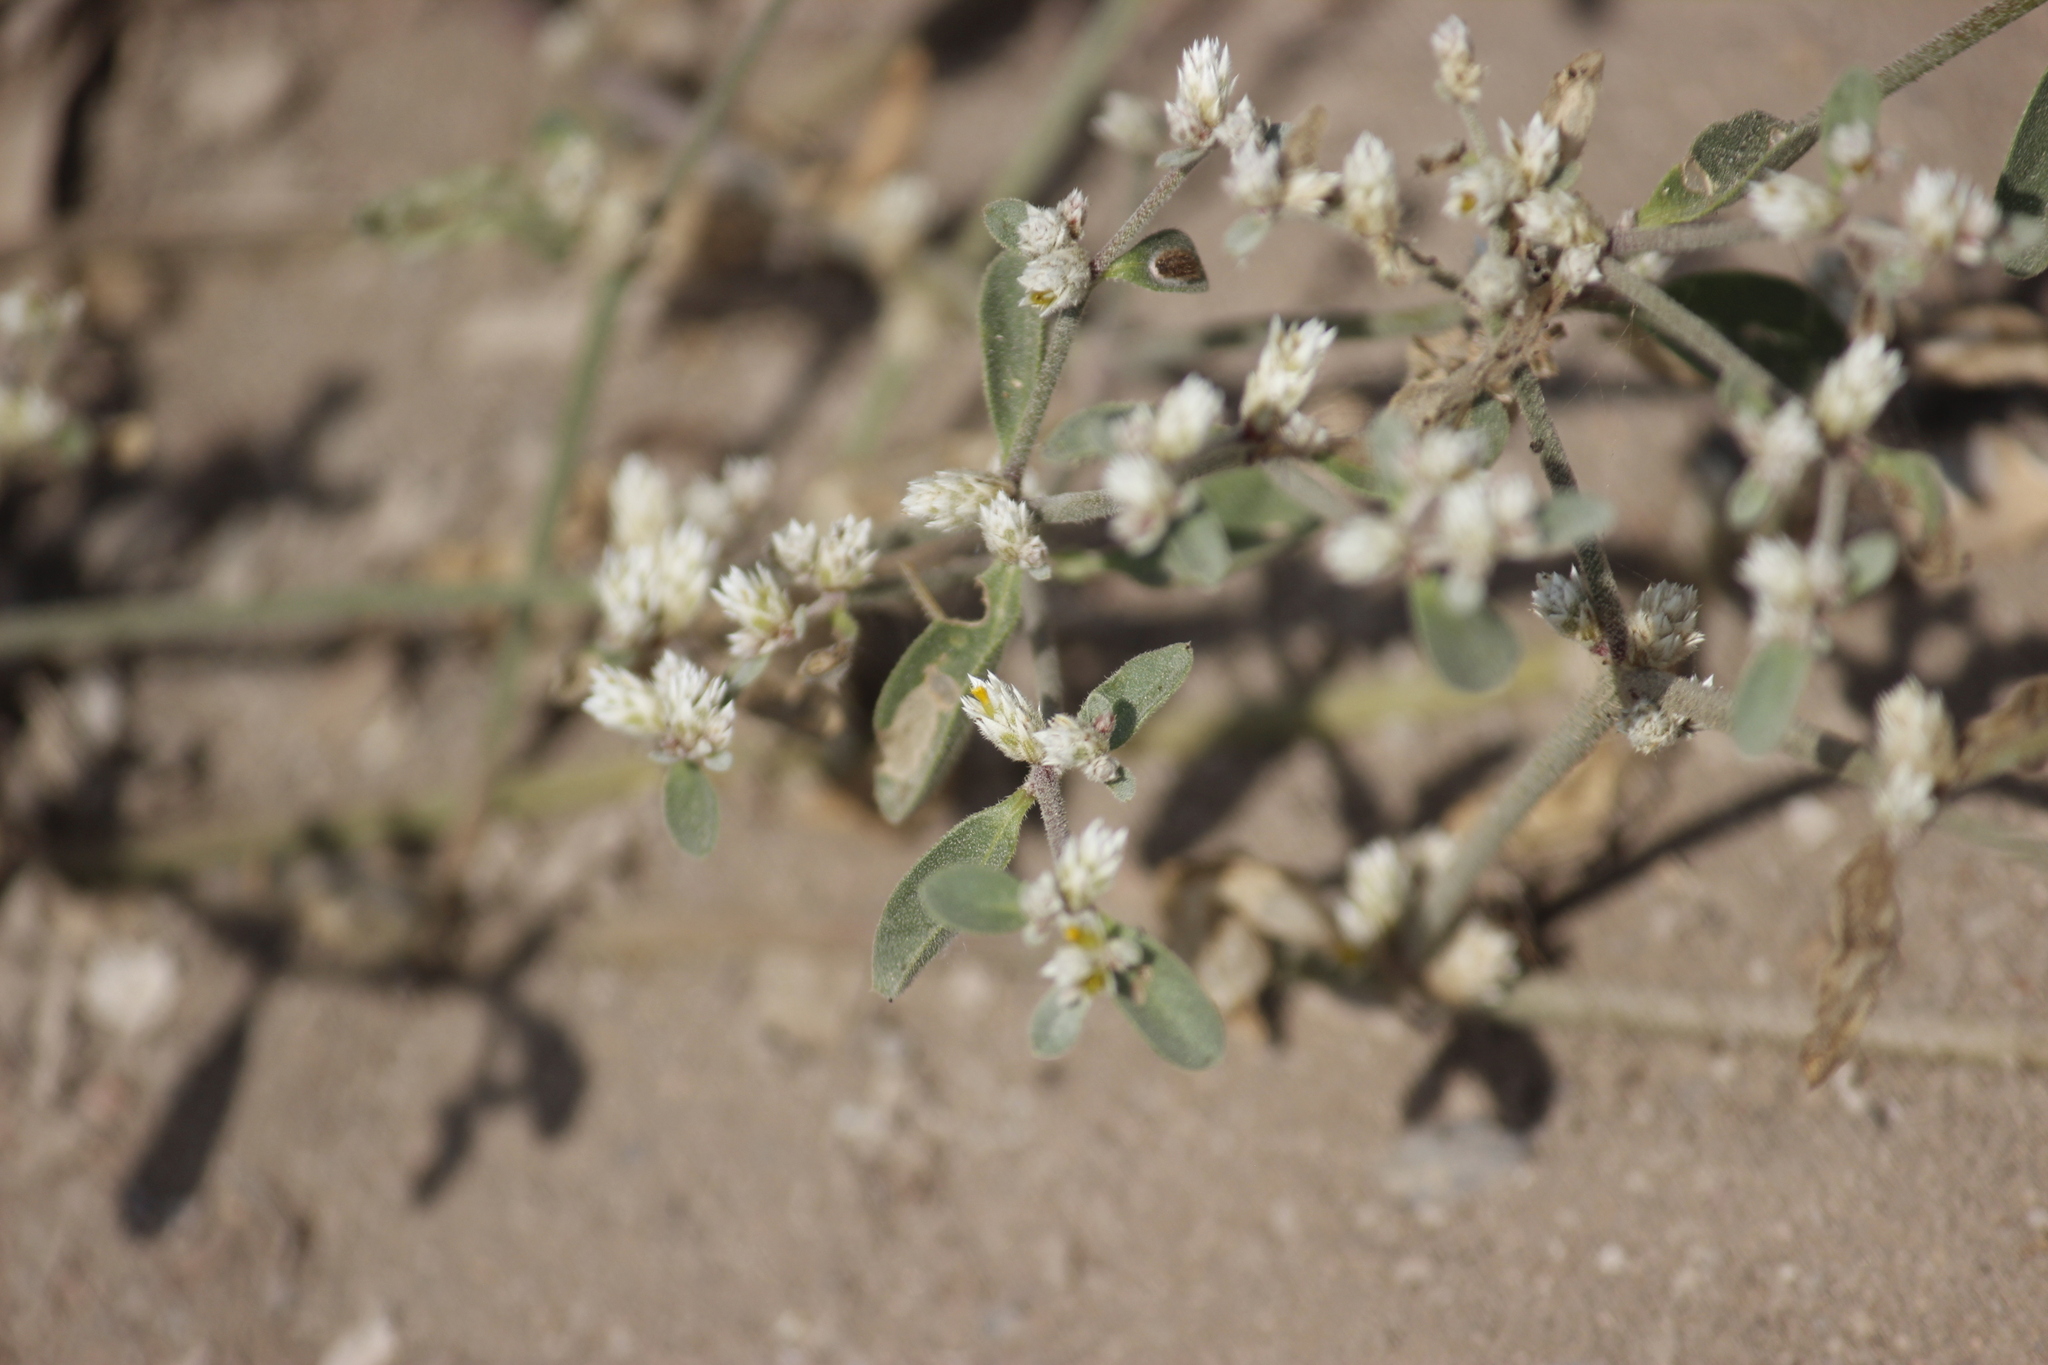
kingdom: Plantae
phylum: Tracheophyta
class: Magnoliopsida
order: Caryophyllales
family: Amaranthaceae
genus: Alternanthera
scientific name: Alternanthera halimifolia
